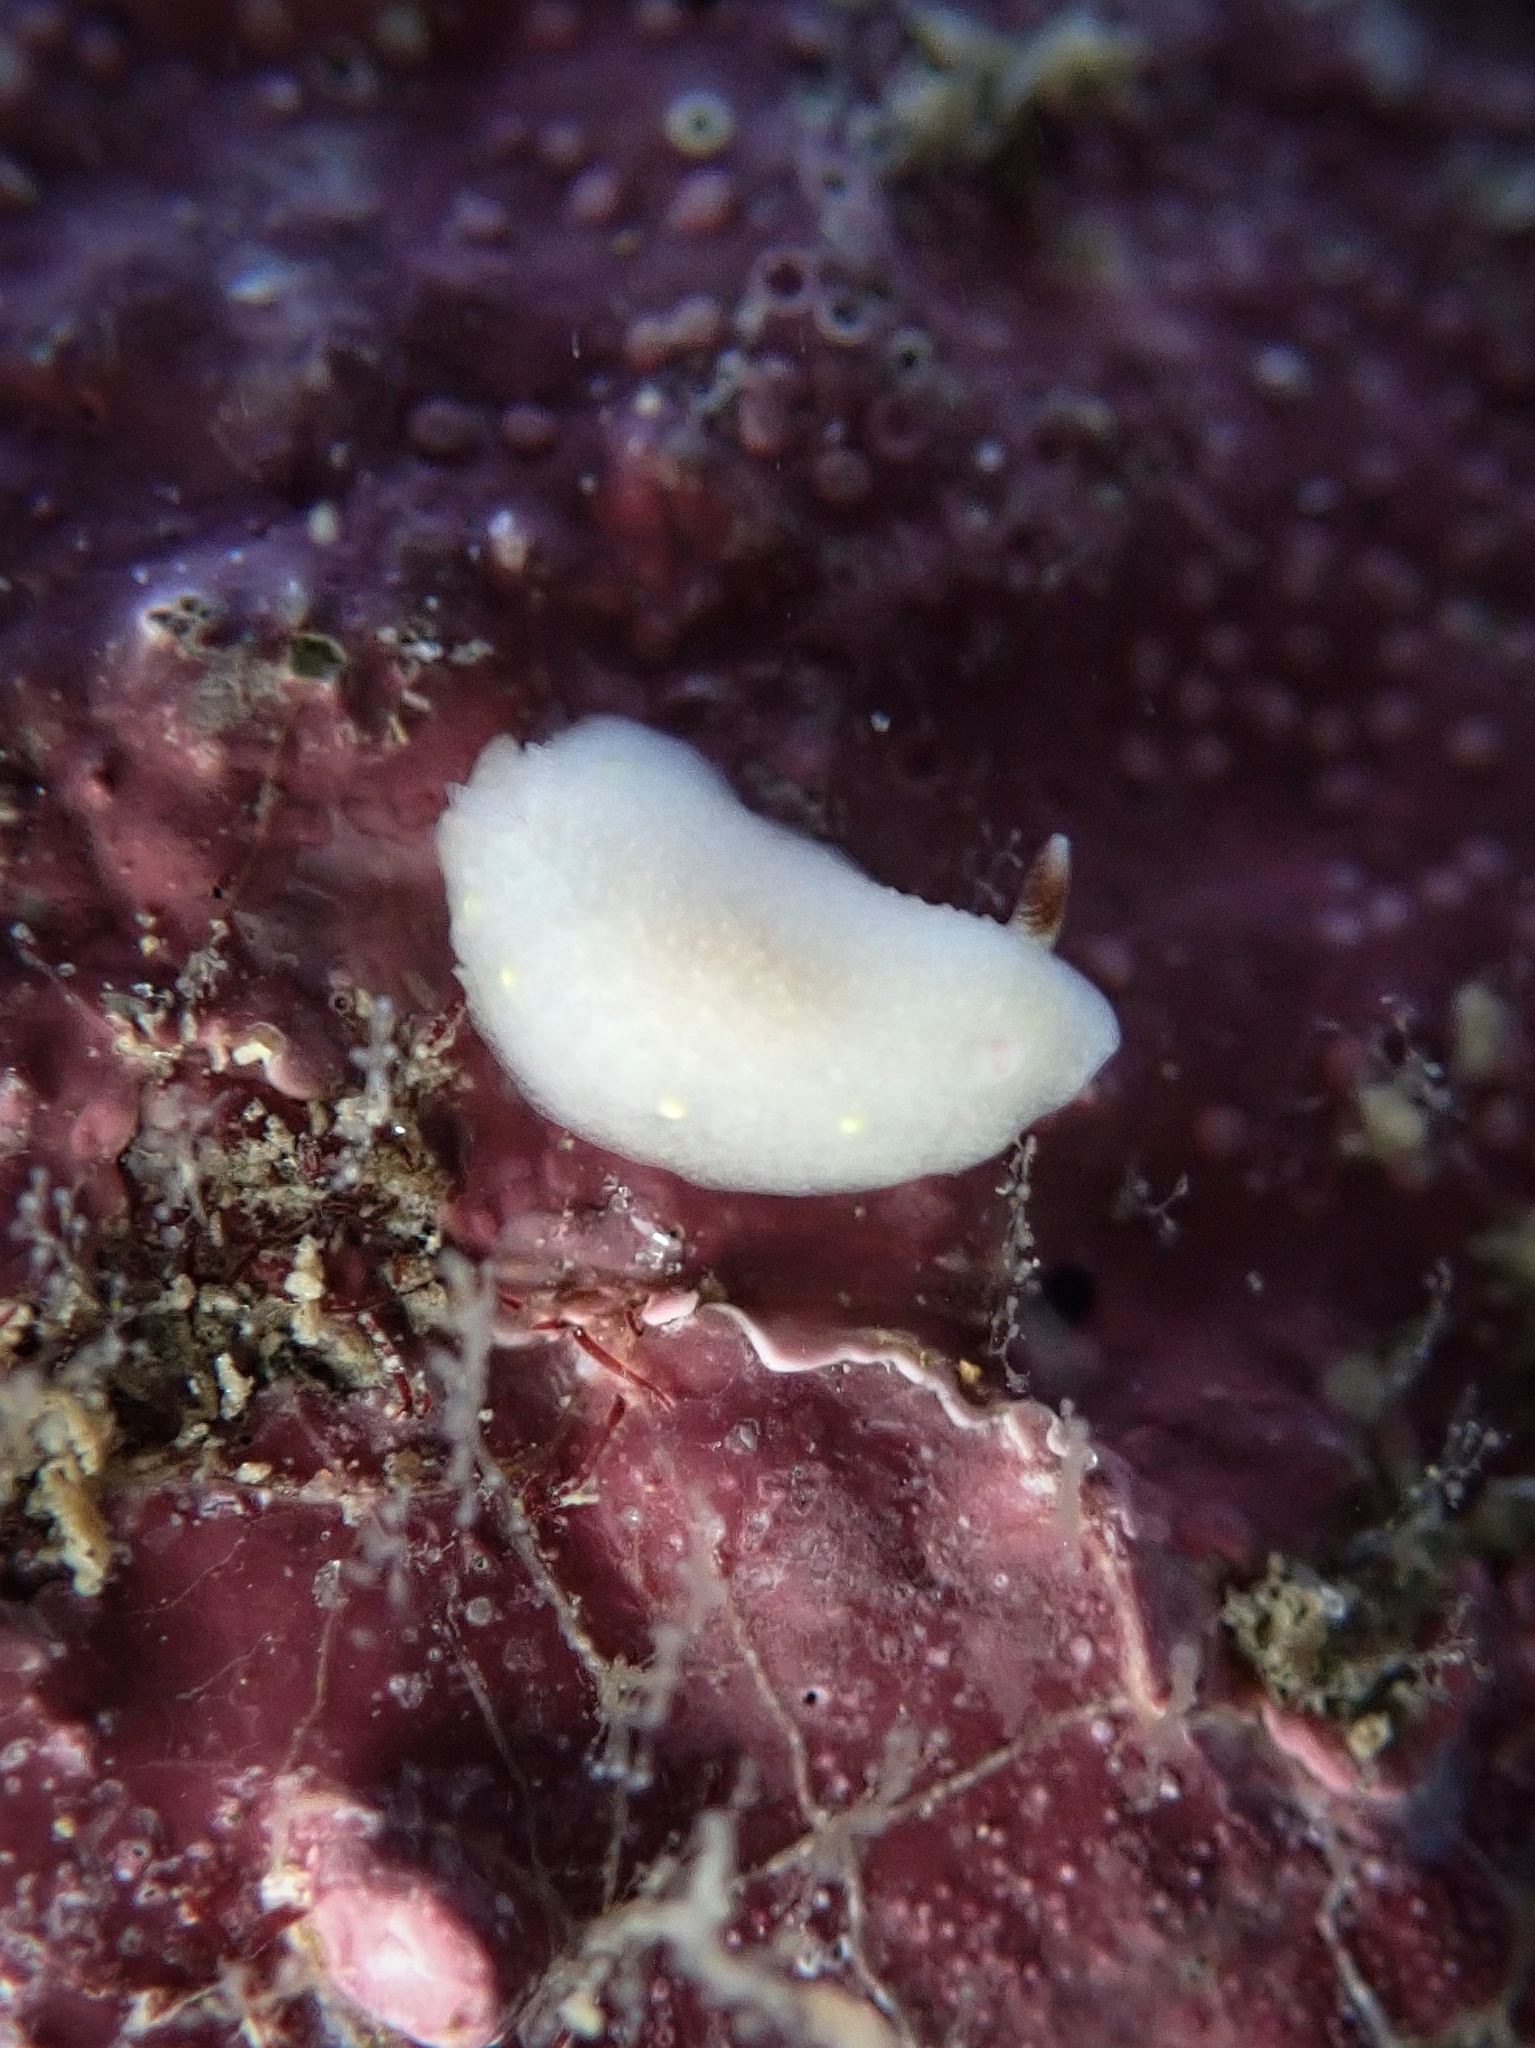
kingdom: Animalia
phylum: Mollusca
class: Gastropoda
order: Nudibranchia
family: Cadlinidae
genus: Cadlina
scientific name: Cadlina flavomaculata
